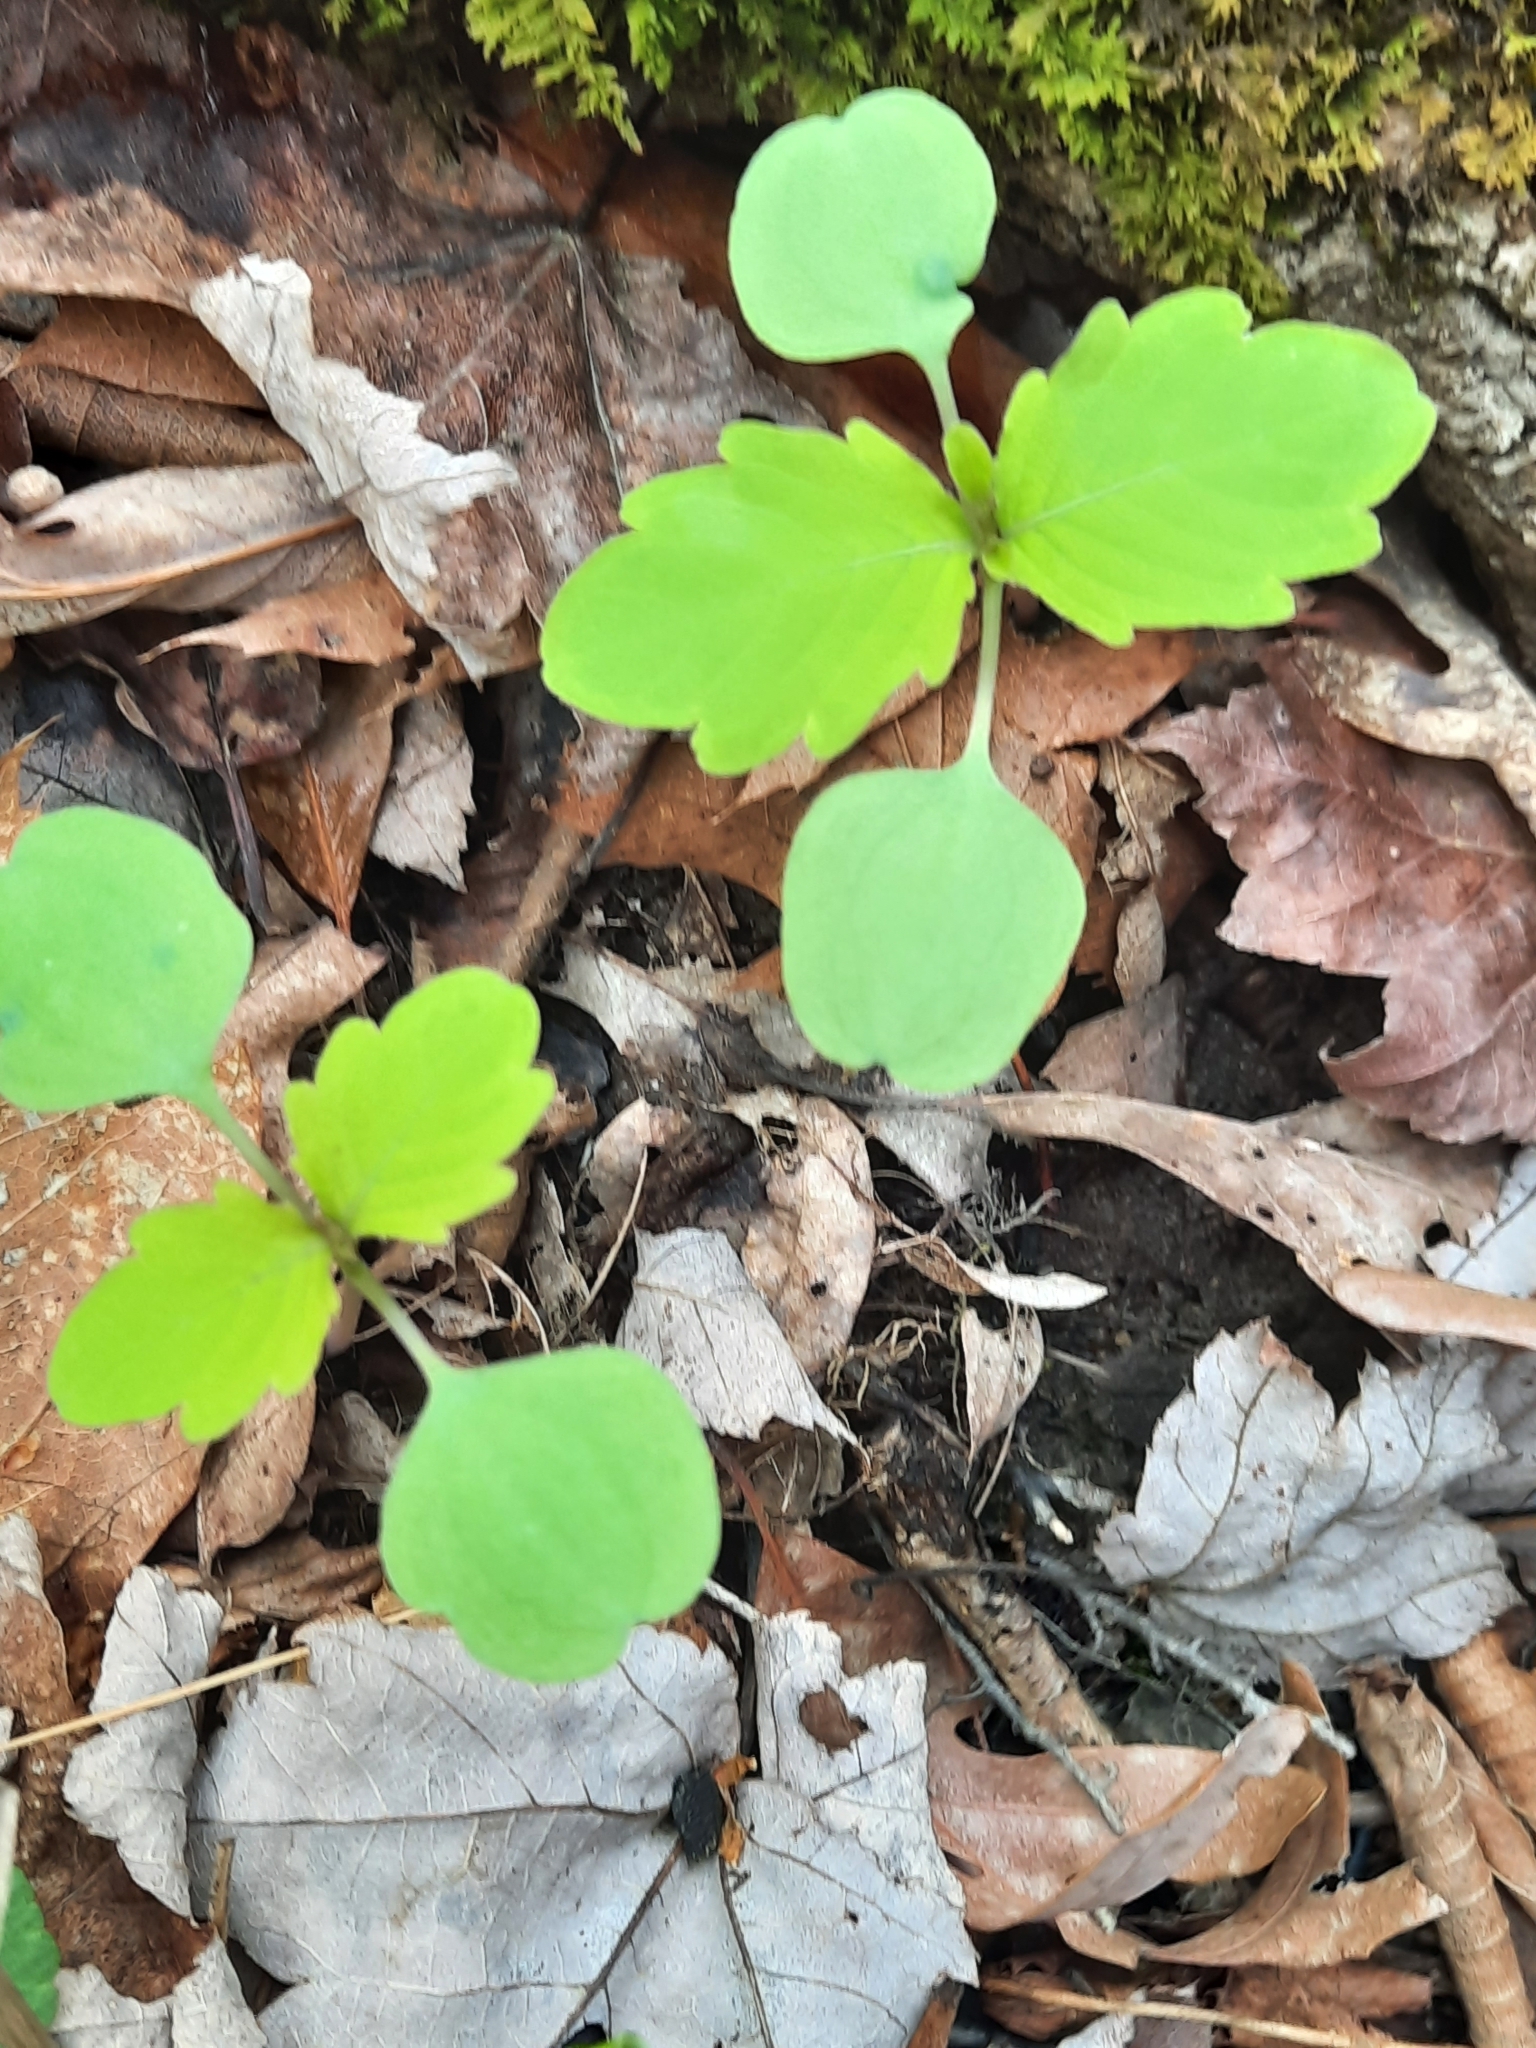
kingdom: Plantae
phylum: Tracheophyta
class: Magnoliopsida
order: Ericales
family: Balsaminaceae
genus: Impatiens
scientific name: Impatiens
